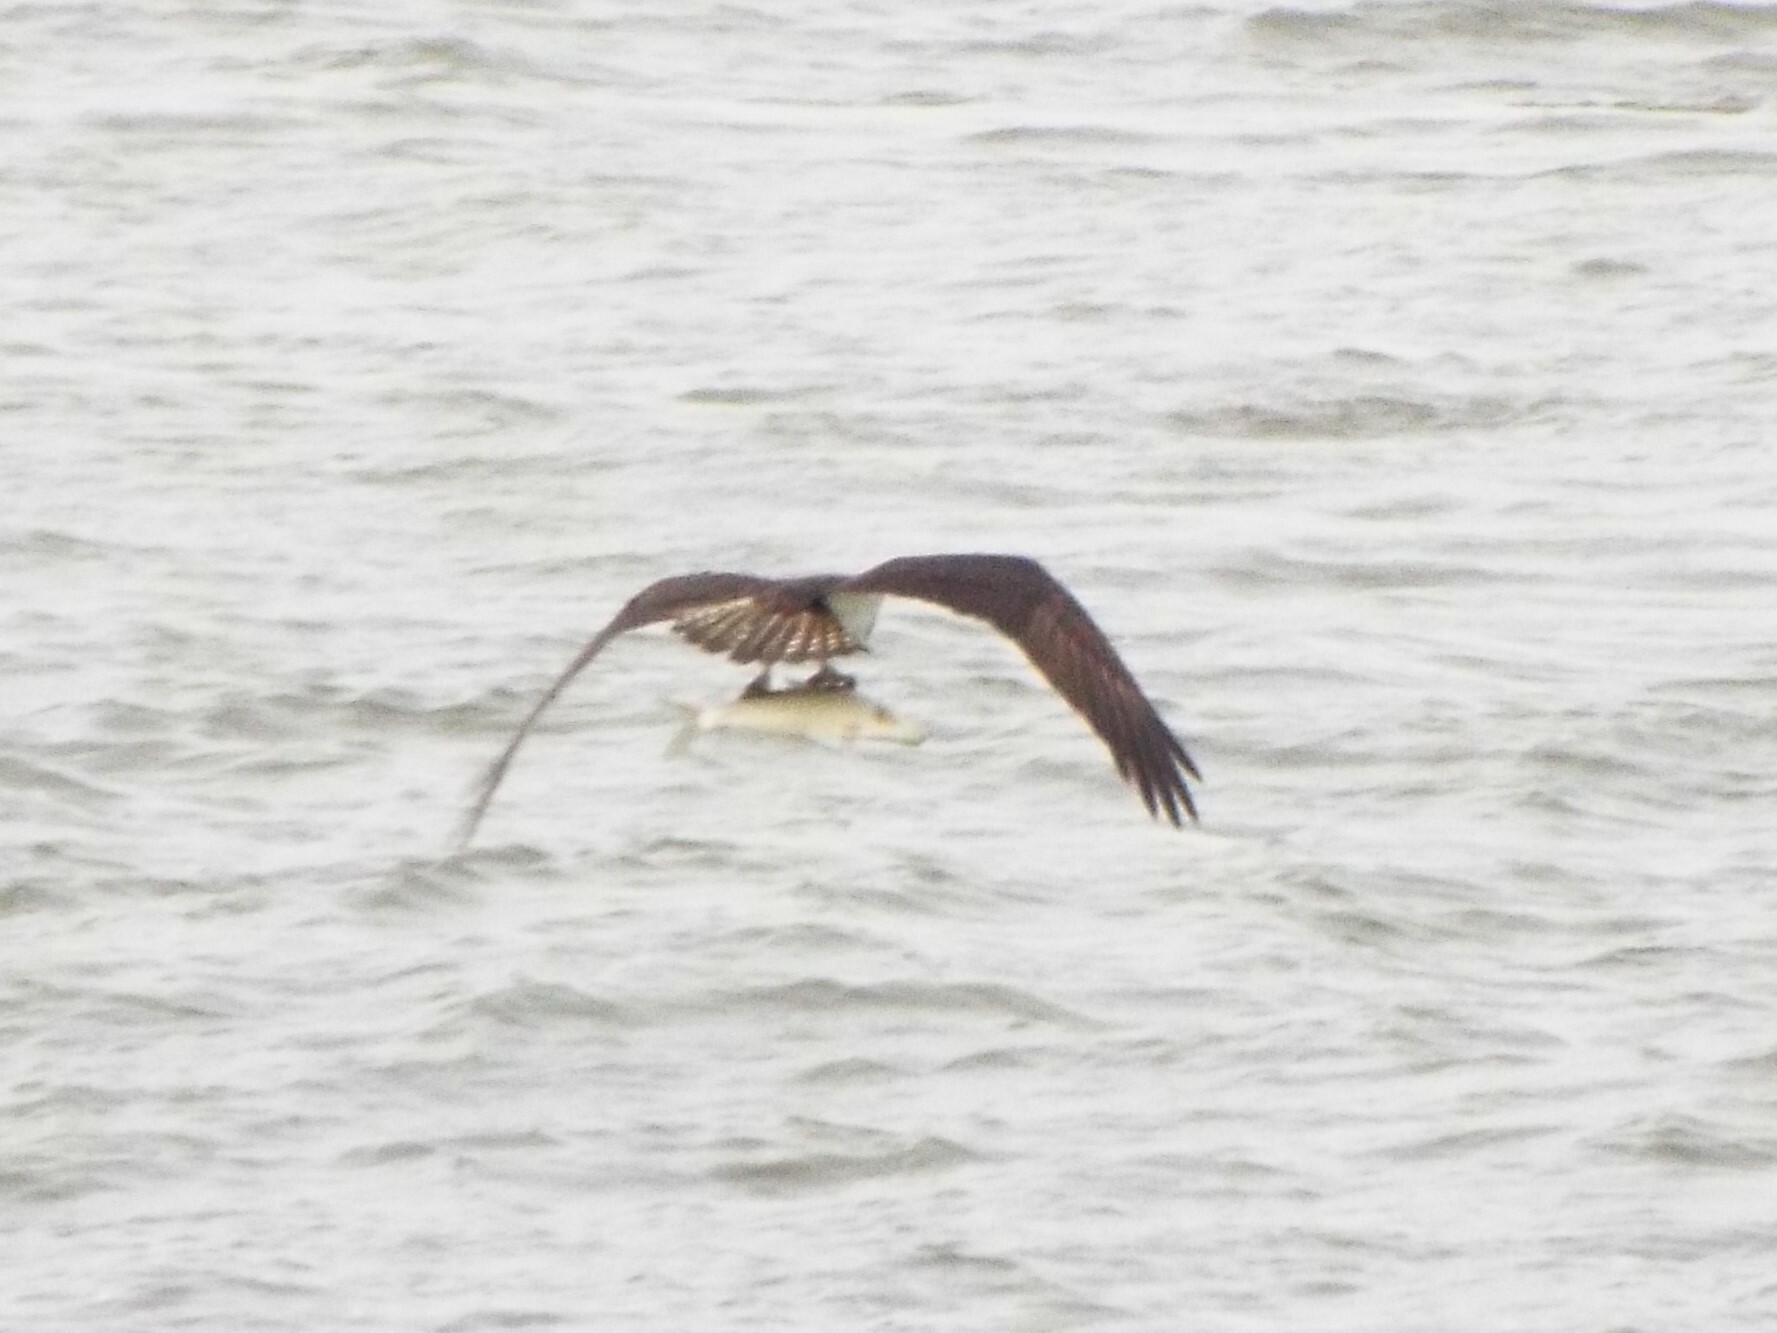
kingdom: Animalia
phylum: Chordata
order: Clupeiformes
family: Clupeidae
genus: Dorosoma
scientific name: Dorosoma cepedianum
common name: Gizzard shad
